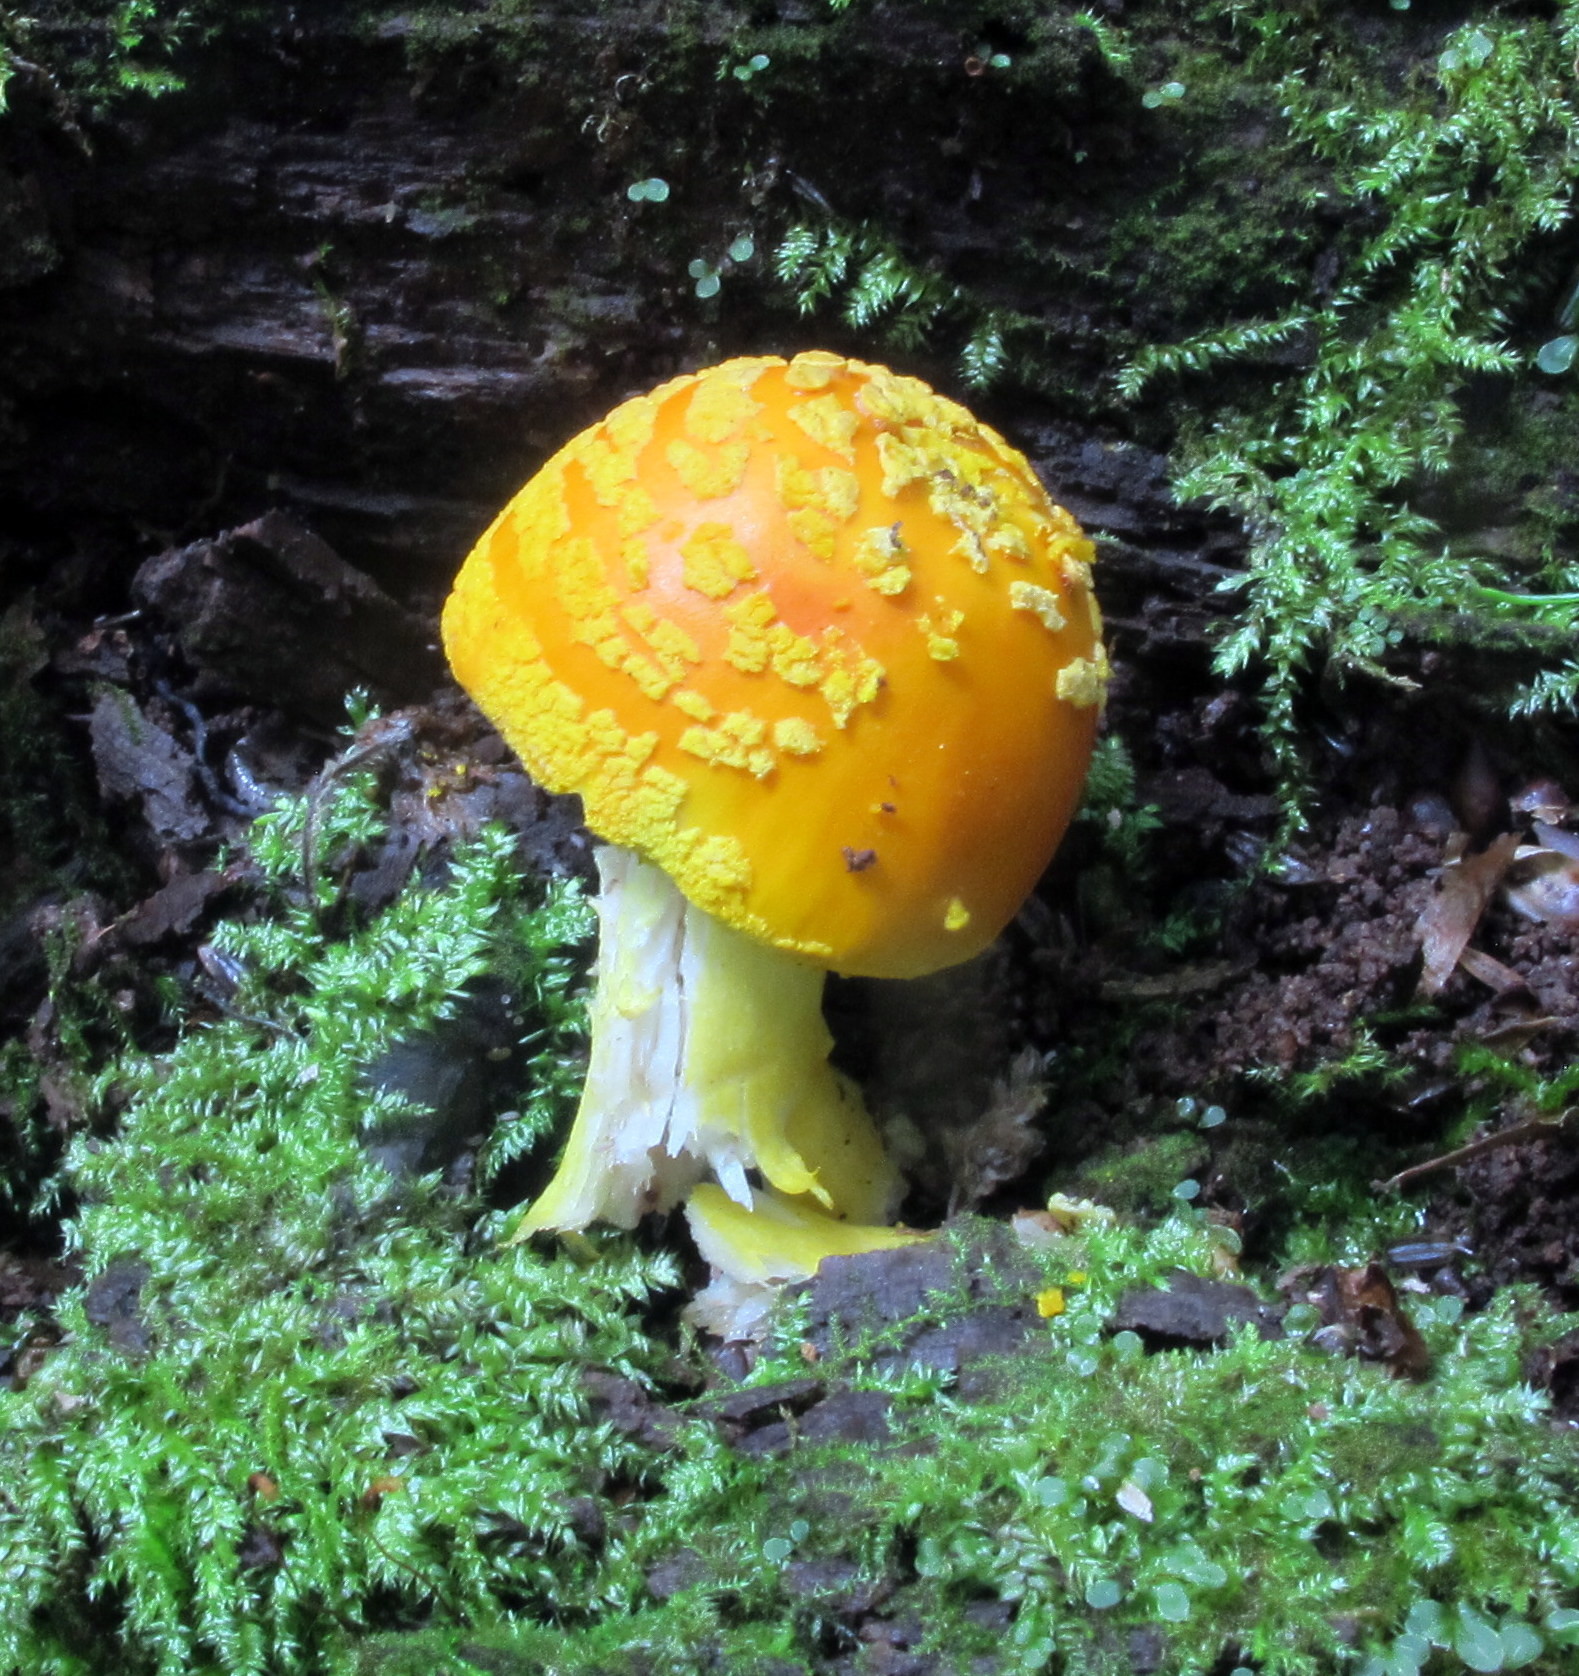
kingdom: Fungi
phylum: Basidiomycota
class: Agaricomycetes
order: Agaricales
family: Amanitaceae
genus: Amanita
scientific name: Amanita flavoconia
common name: Yellow patches
